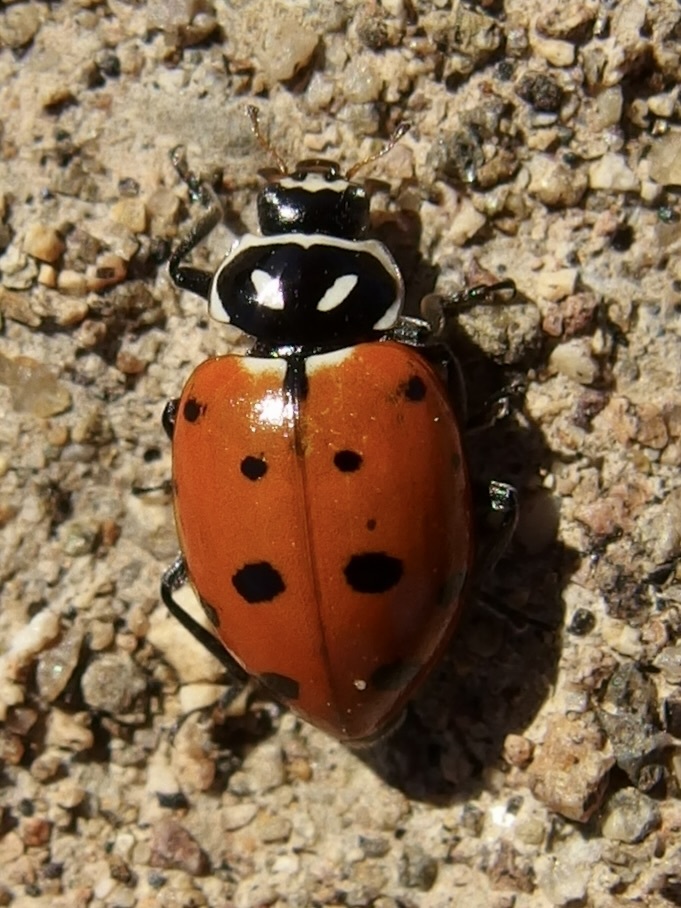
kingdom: Animalia
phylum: Arthropoda
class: Insecta
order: Coleoptera
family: Coccinellidae
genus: Hippodamia
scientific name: Hippodamia convergens
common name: Convergent lady beetle
